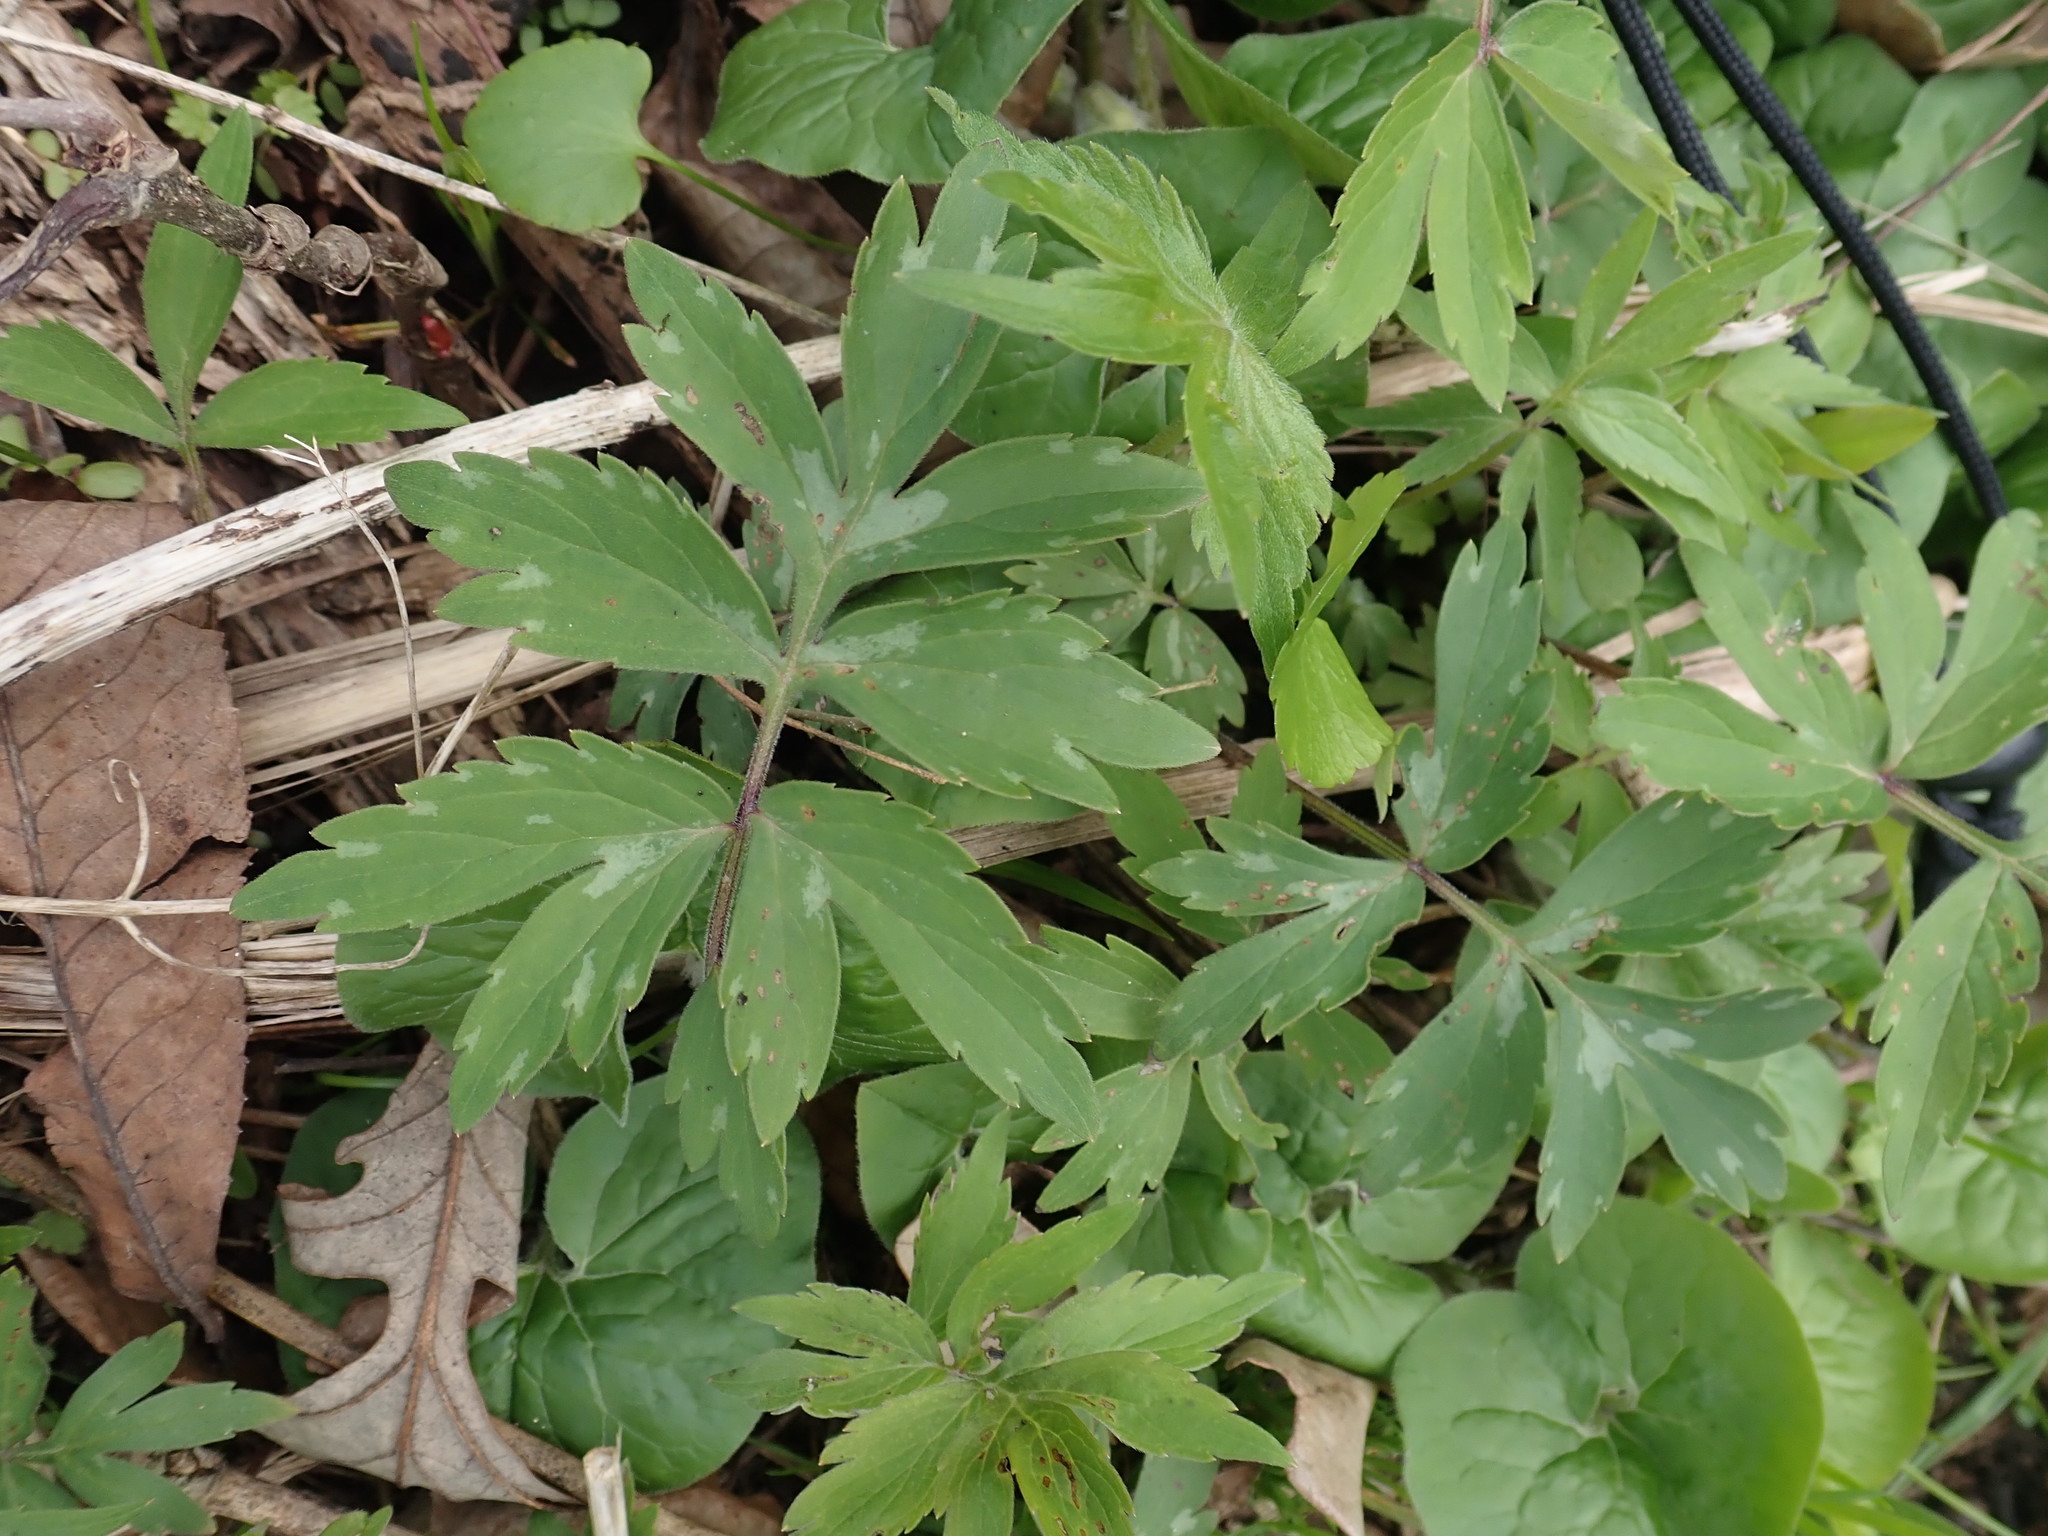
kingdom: Plantae
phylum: Tracheophyta
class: Magnoliopsida
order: Boraginales
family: Hydrophyllaceae
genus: Hydrophyllum
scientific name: Hydrophyllum virginianum
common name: Virginia waterleaf
